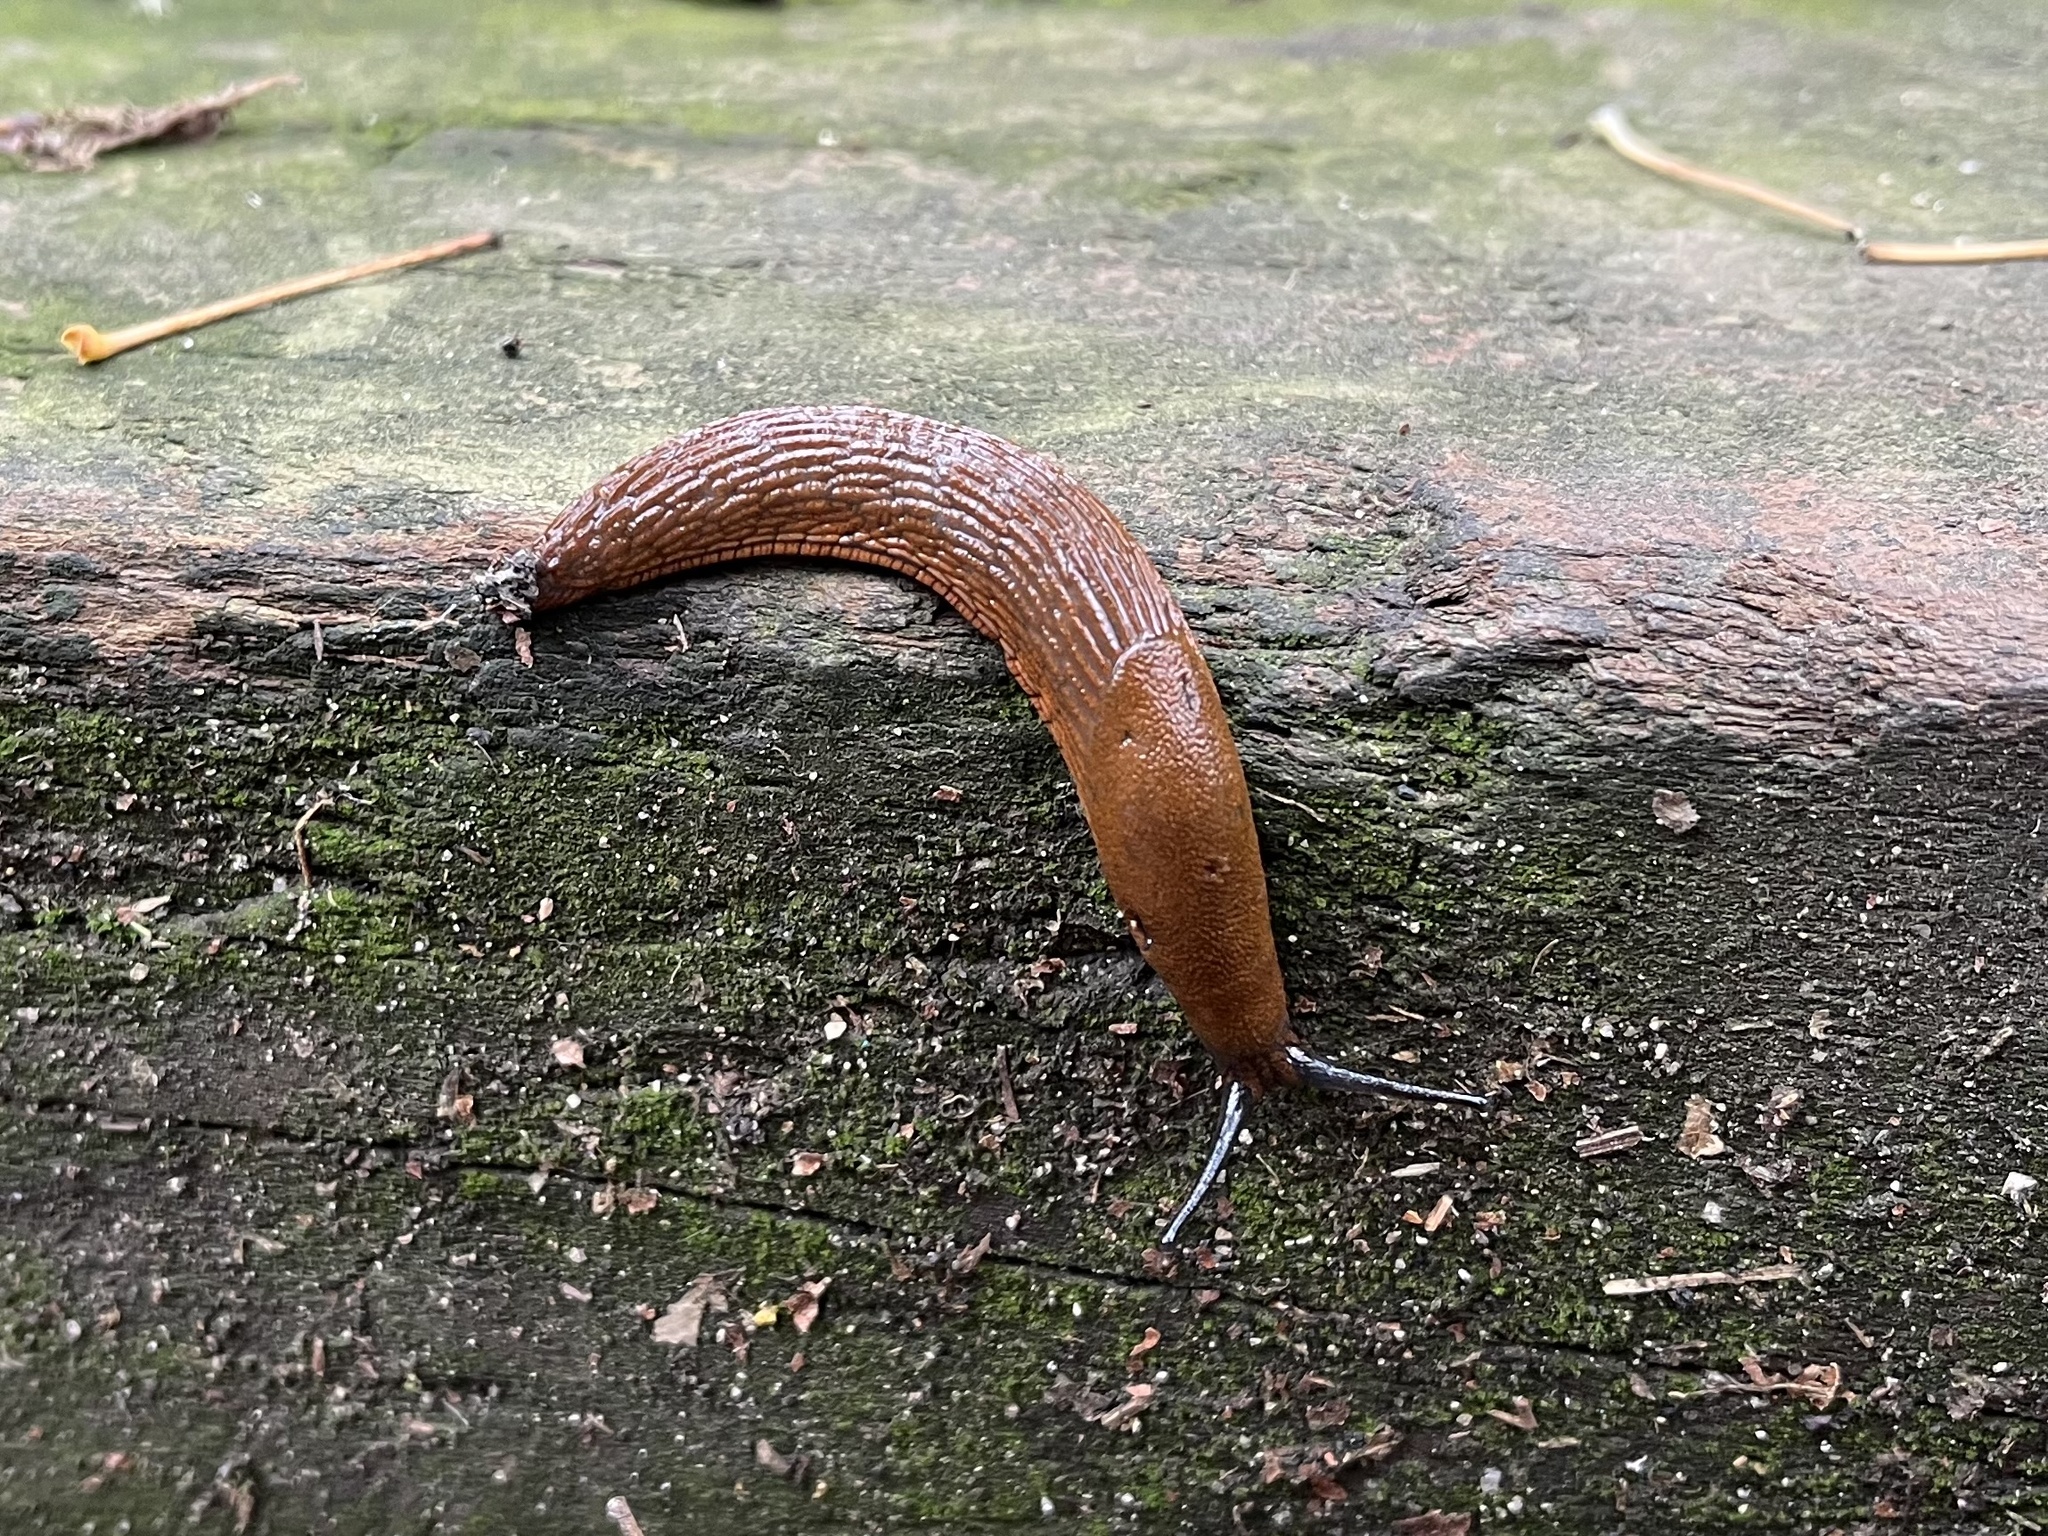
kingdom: Animalia
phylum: Mollusca
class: Gastropoda
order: Stylommatophora
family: Arionidae
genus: Arion
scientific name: Arion
